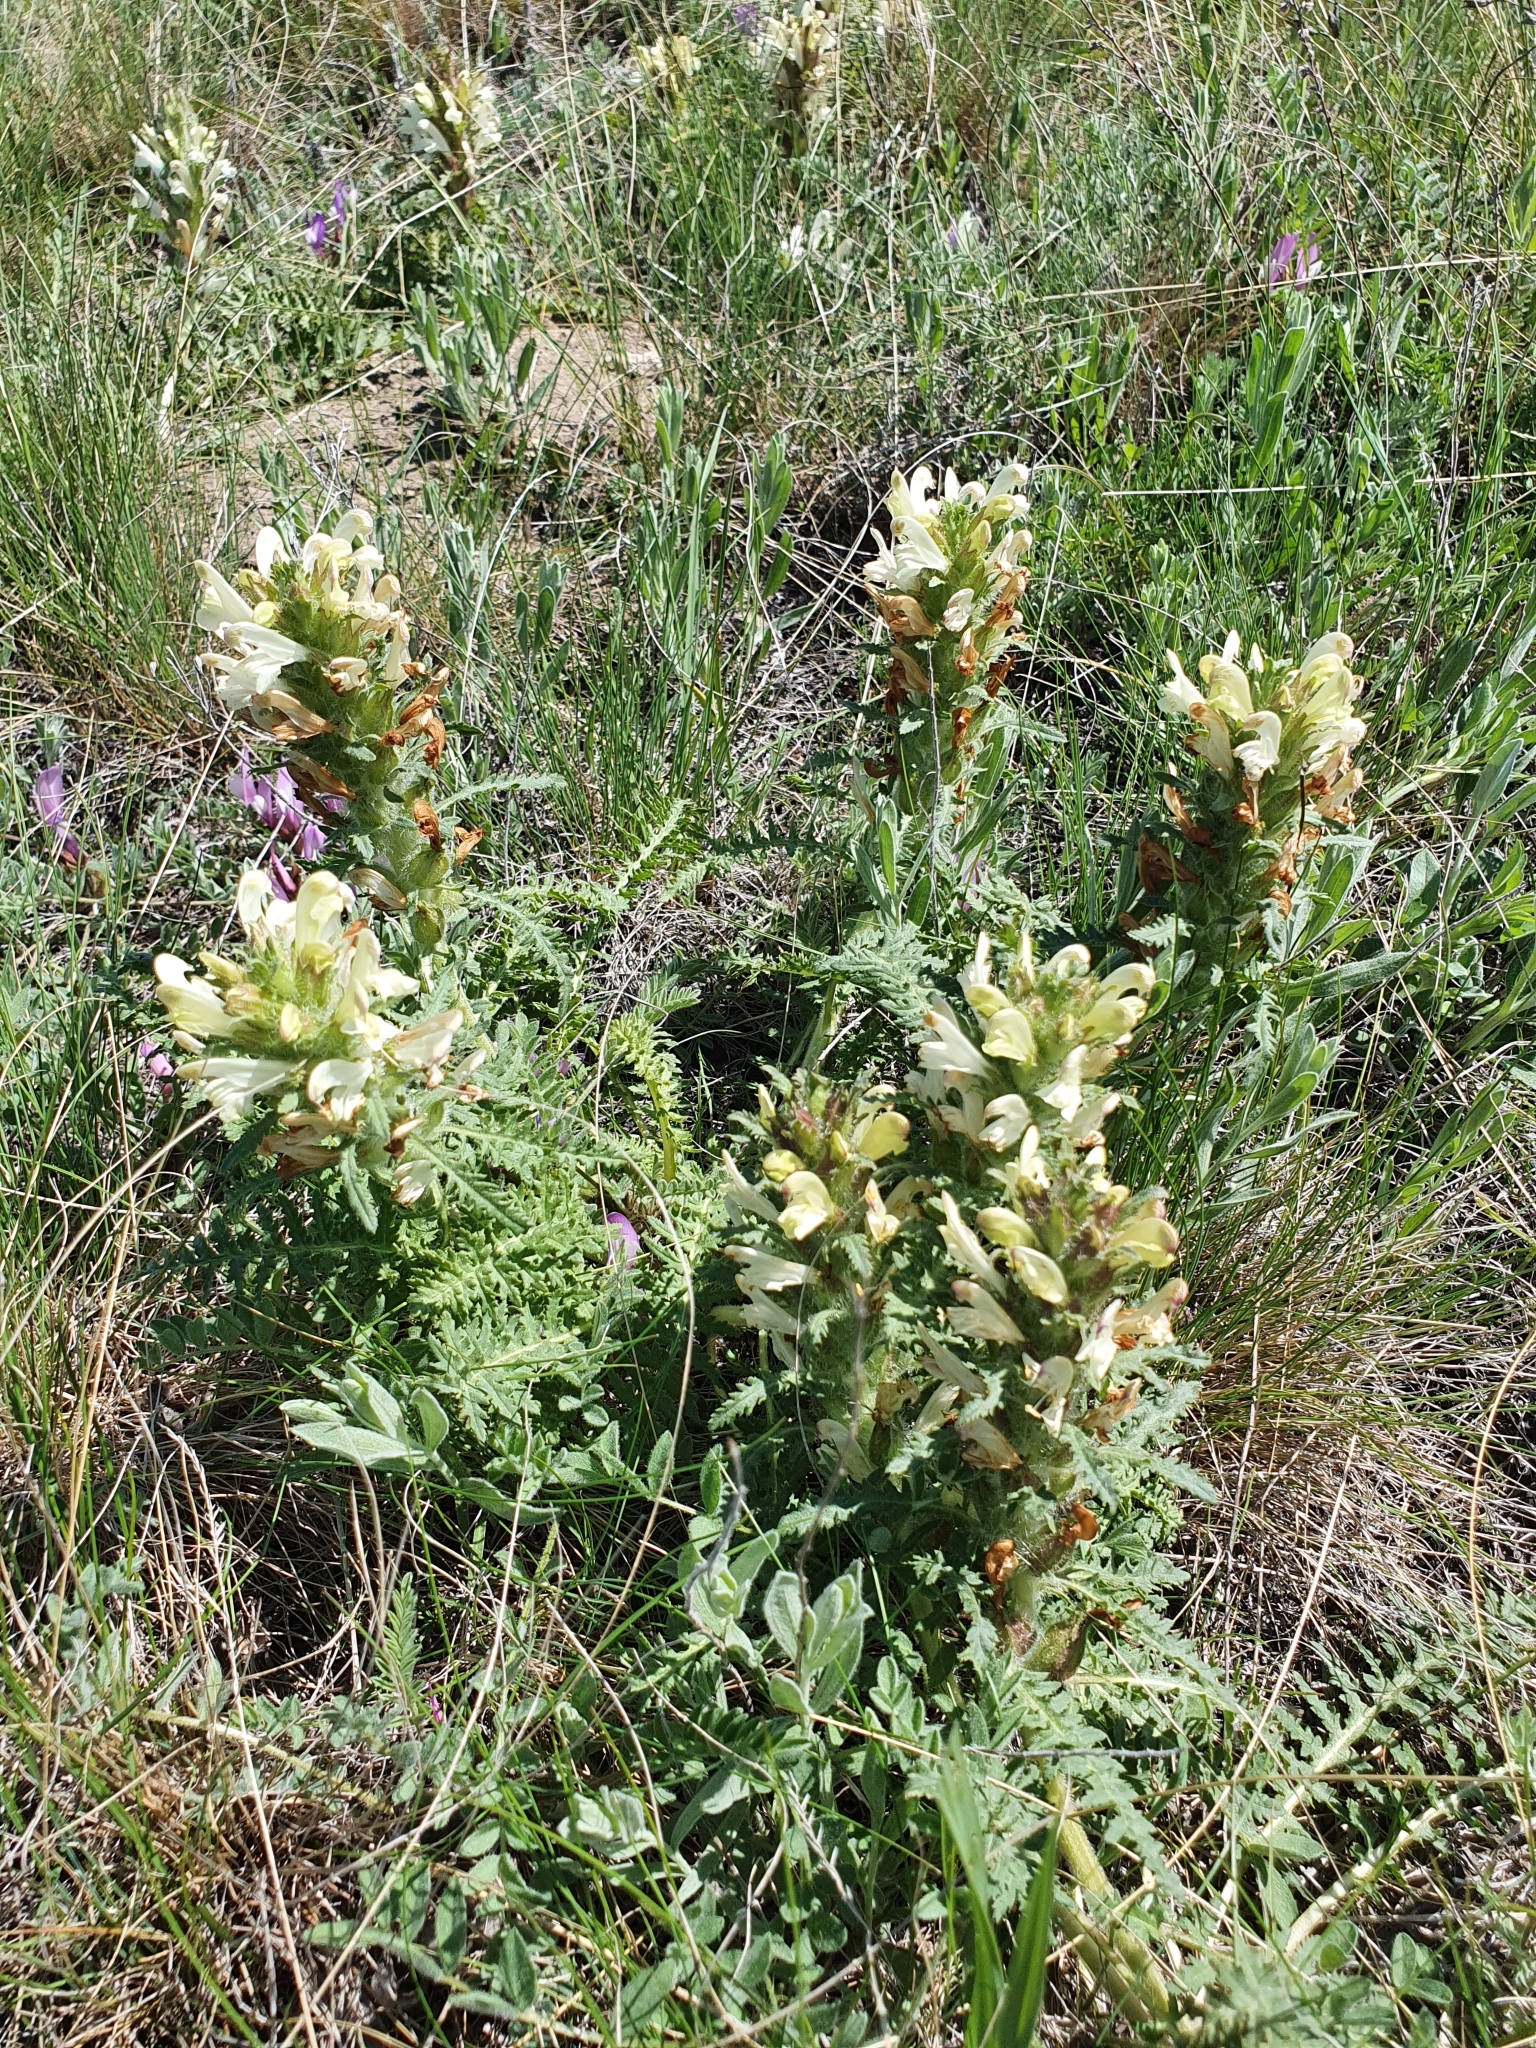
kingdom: Plantae
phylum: Tracheophyta
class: Magnoliopsida
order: Lamiales
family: Orobanchaceae
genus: Pedicularis
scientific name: Pedicularis physocalyx
